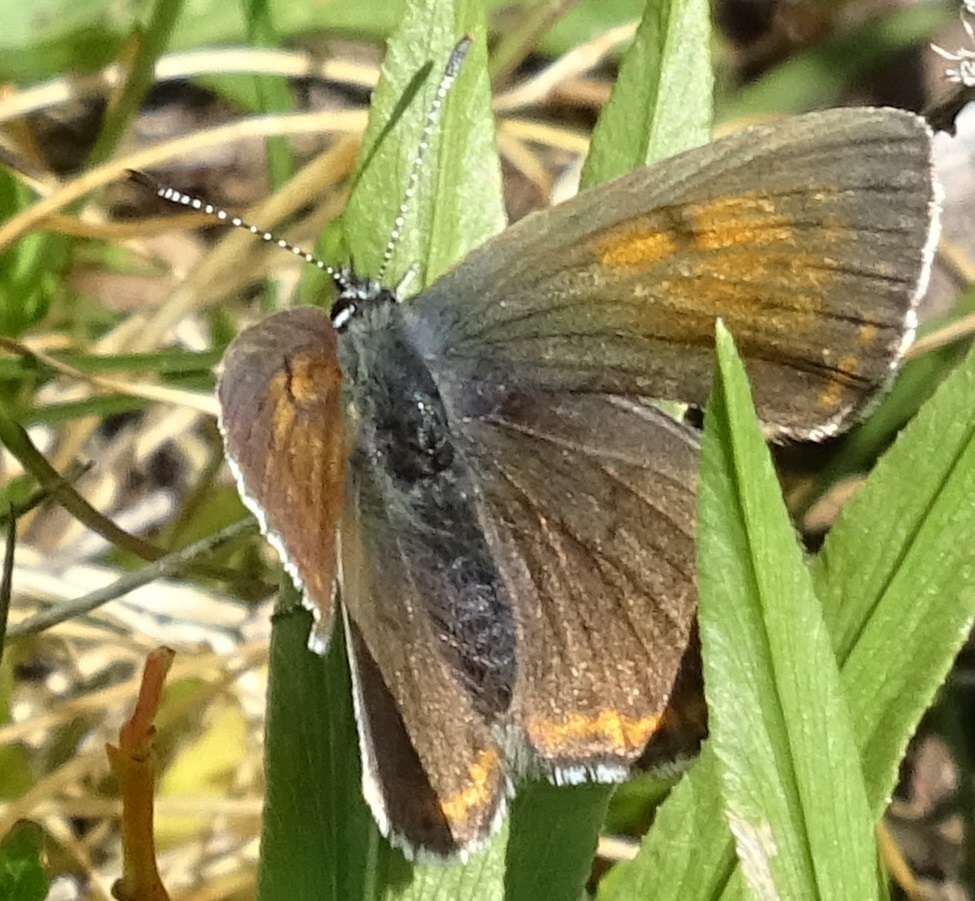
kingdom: Animalia
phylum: Arthropoda
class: Insecta
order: Lepidoptera
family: Lycaenidae
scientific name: Lycaenidae
